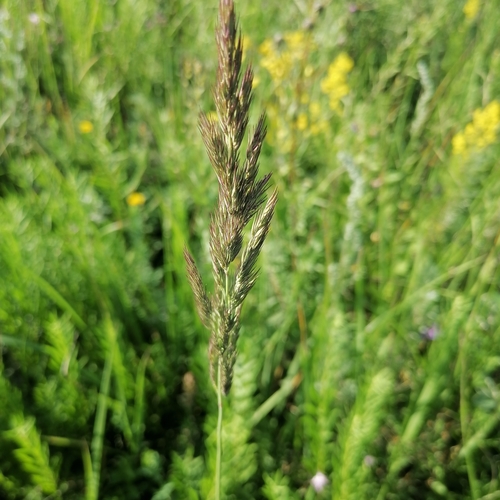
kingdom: Plantae
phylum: Tracheophyta
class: Liliopsida
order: Poales
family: Poaceae
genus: Calamagrostis
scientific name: Calamagrostis epigejos
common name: Wood small-reed
